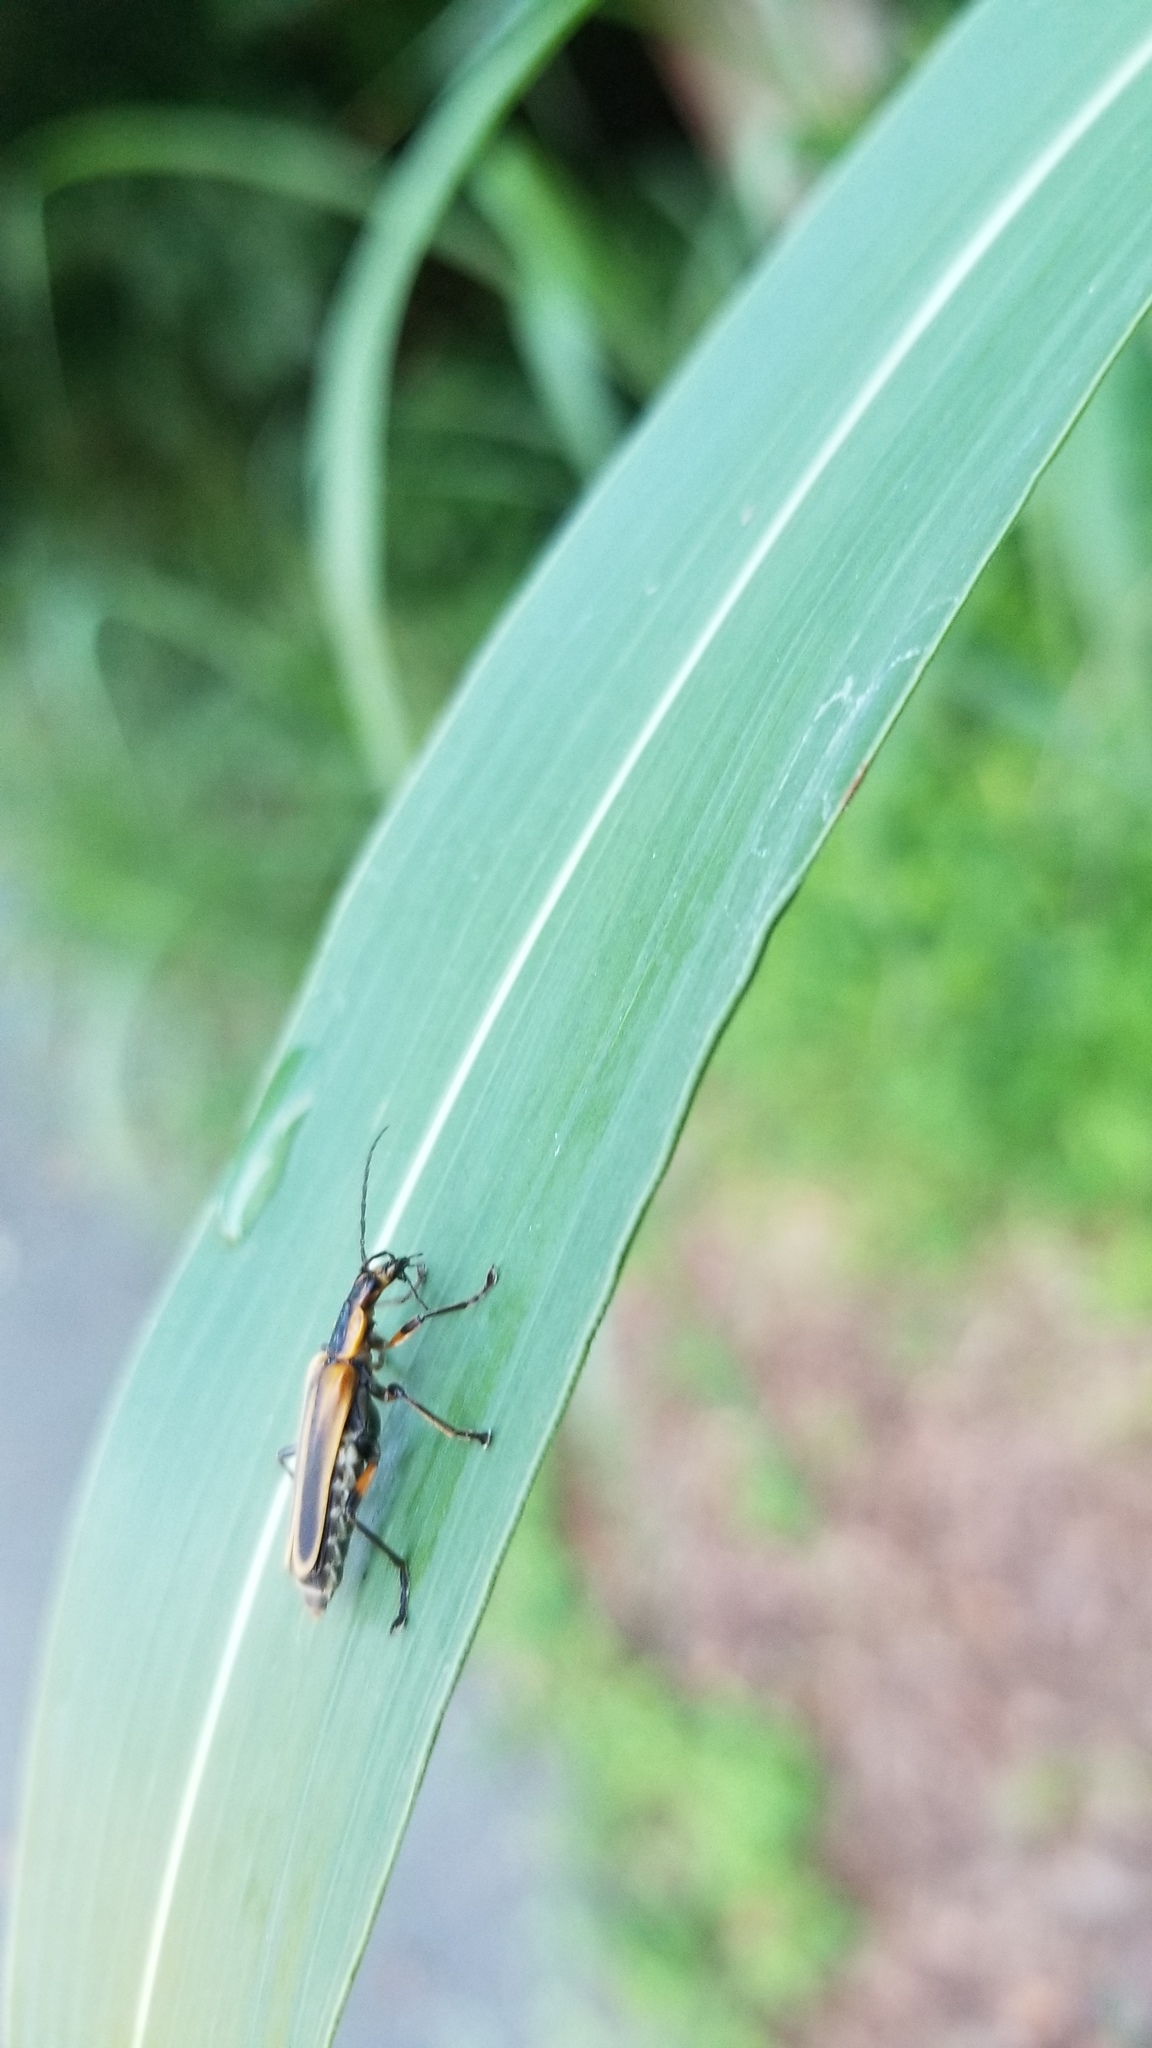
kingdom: Animalia
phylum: Arthropoda
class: Insecta
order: Coleoptera
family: Cantharidae
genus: Chauliognathus
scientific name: Chauliognathus marginatus
